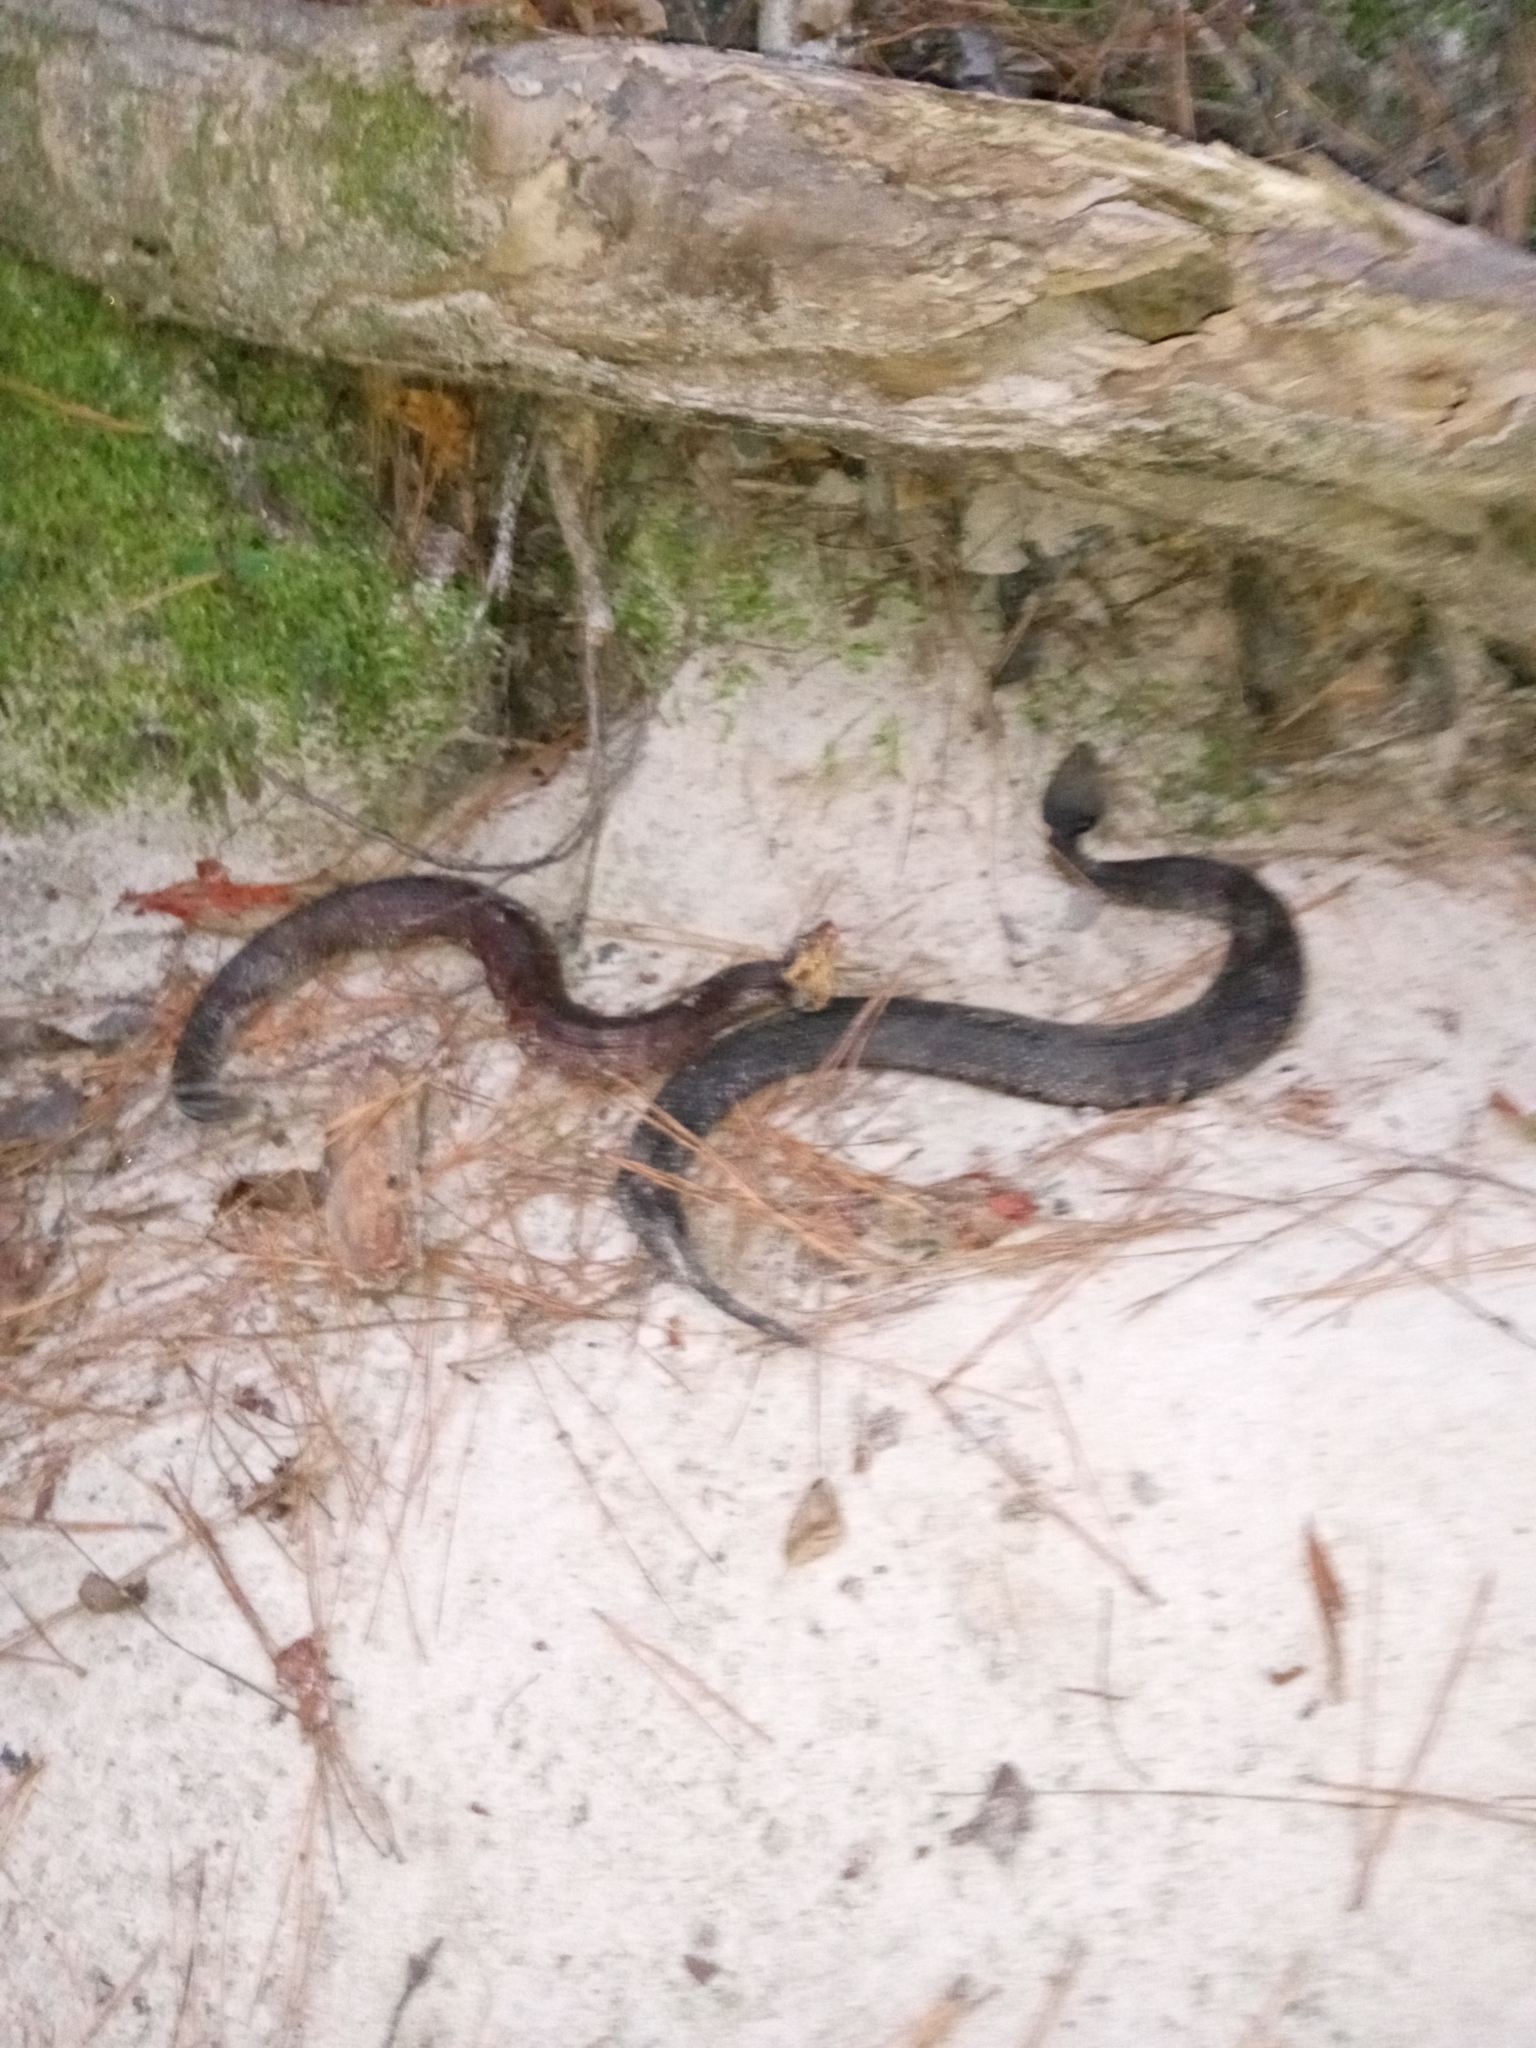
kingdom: Animalia
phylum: Chordata
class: Squamata
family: Viperidae
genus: Agkistrodon
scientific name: Agkistrodon piscivorus
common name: Cottonmouth
